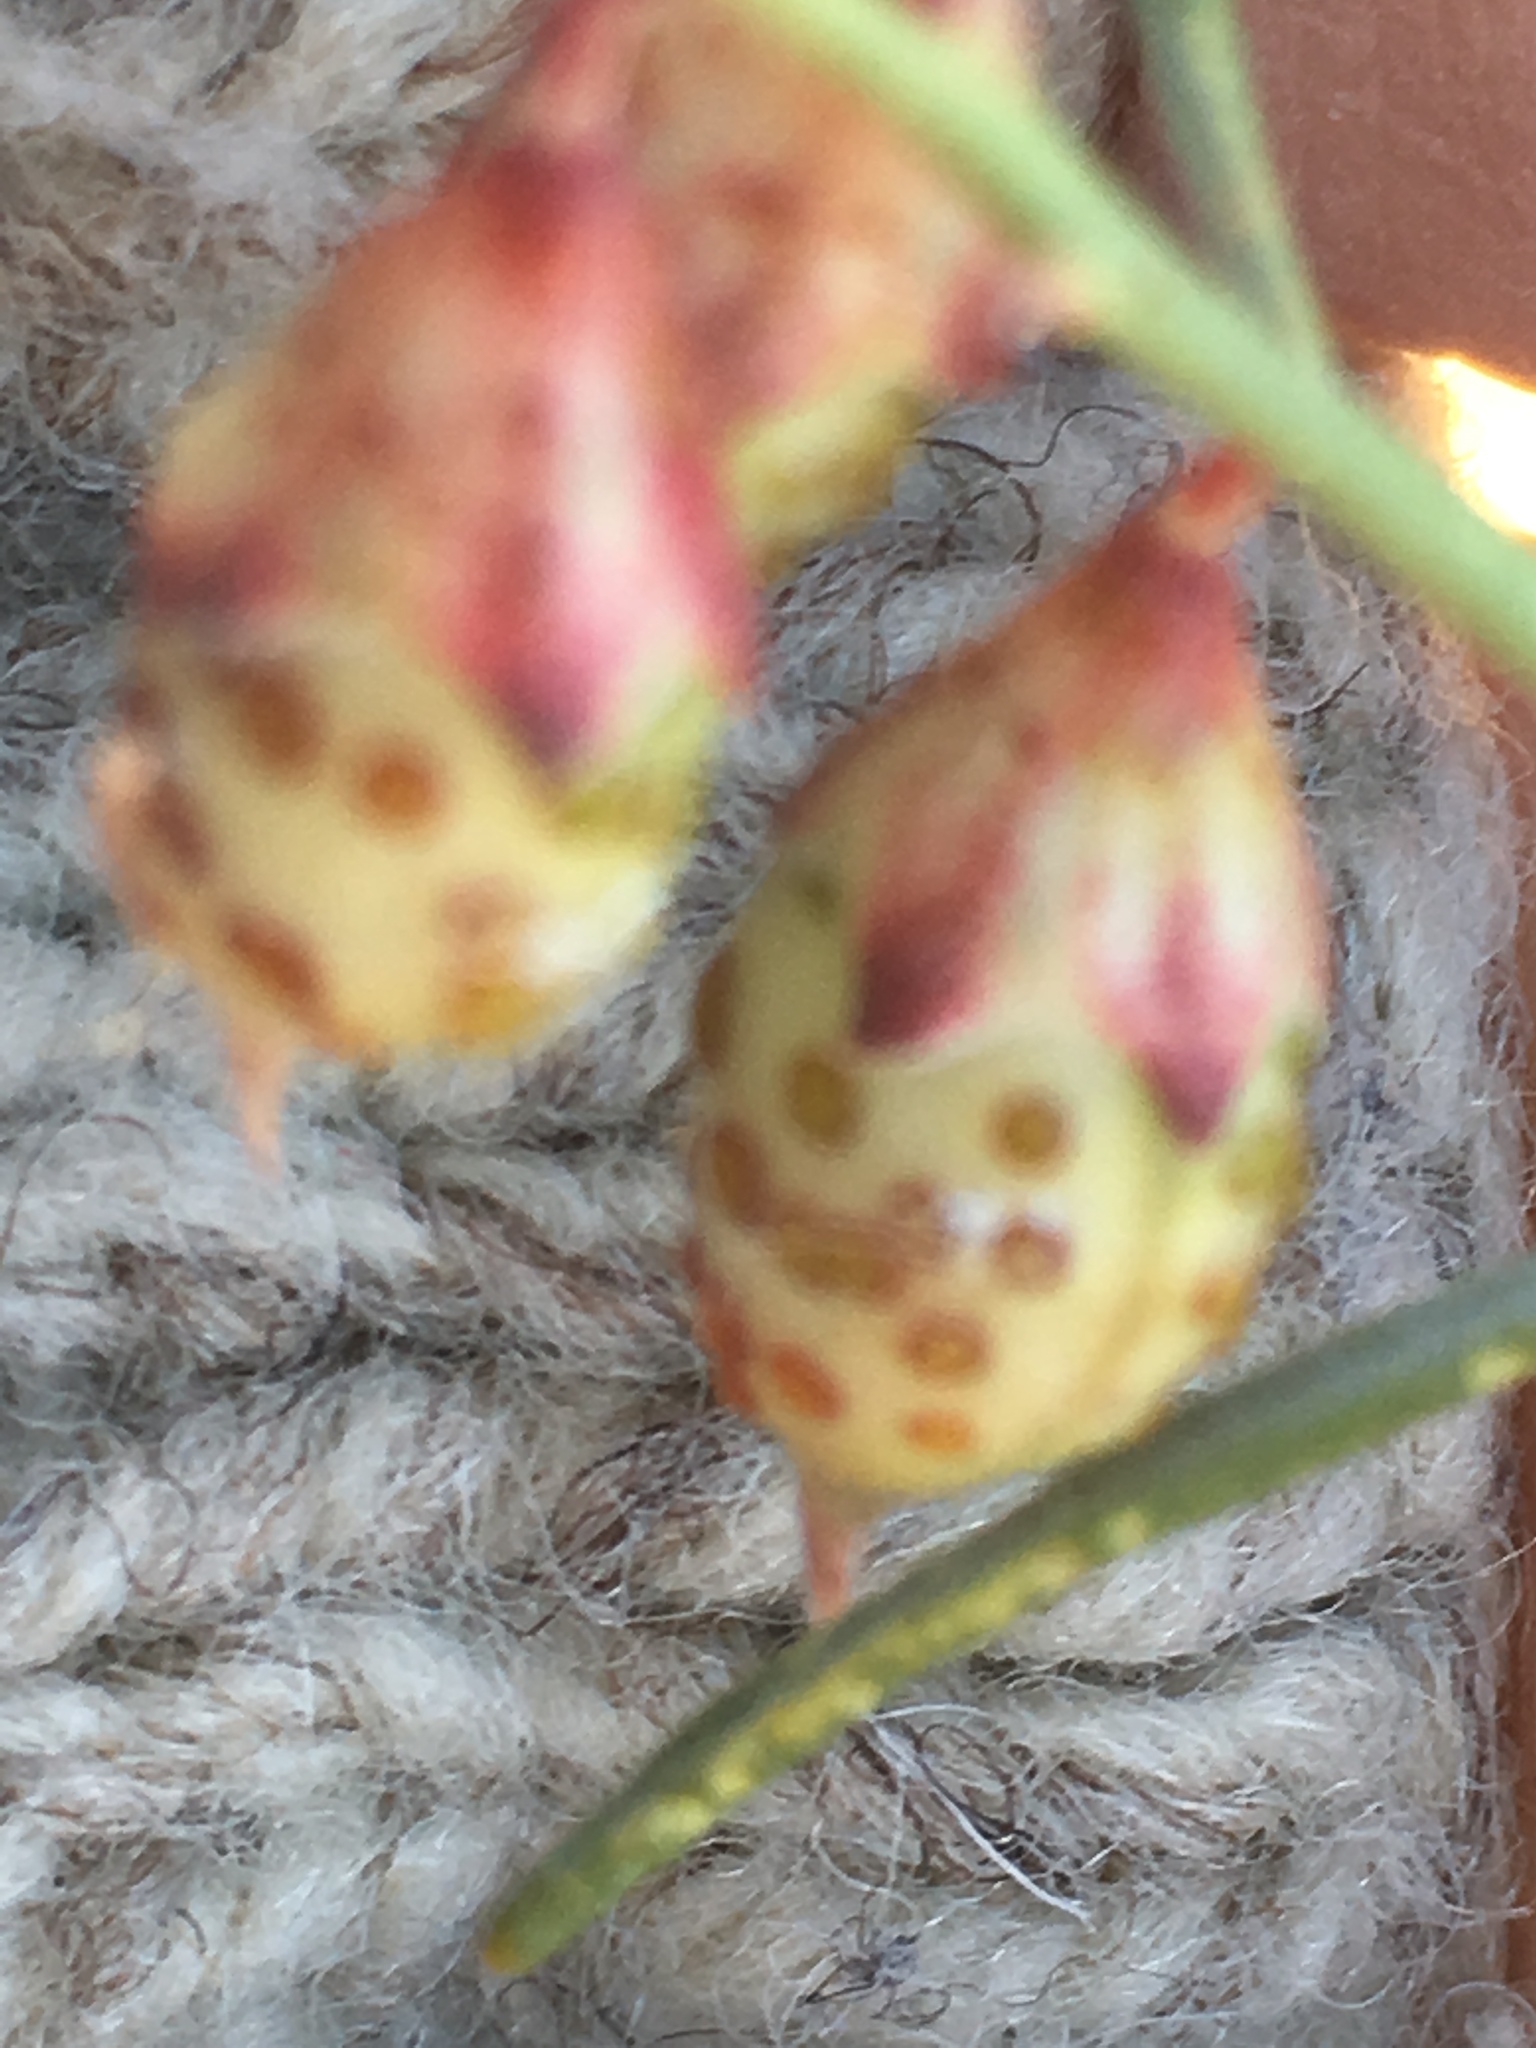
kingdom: Plantae
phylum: Tracheophyta
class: Magnoliopsida
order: Fabales
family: Fabaceae
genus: Psorothamnus
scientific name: Psorothamnus schottii
